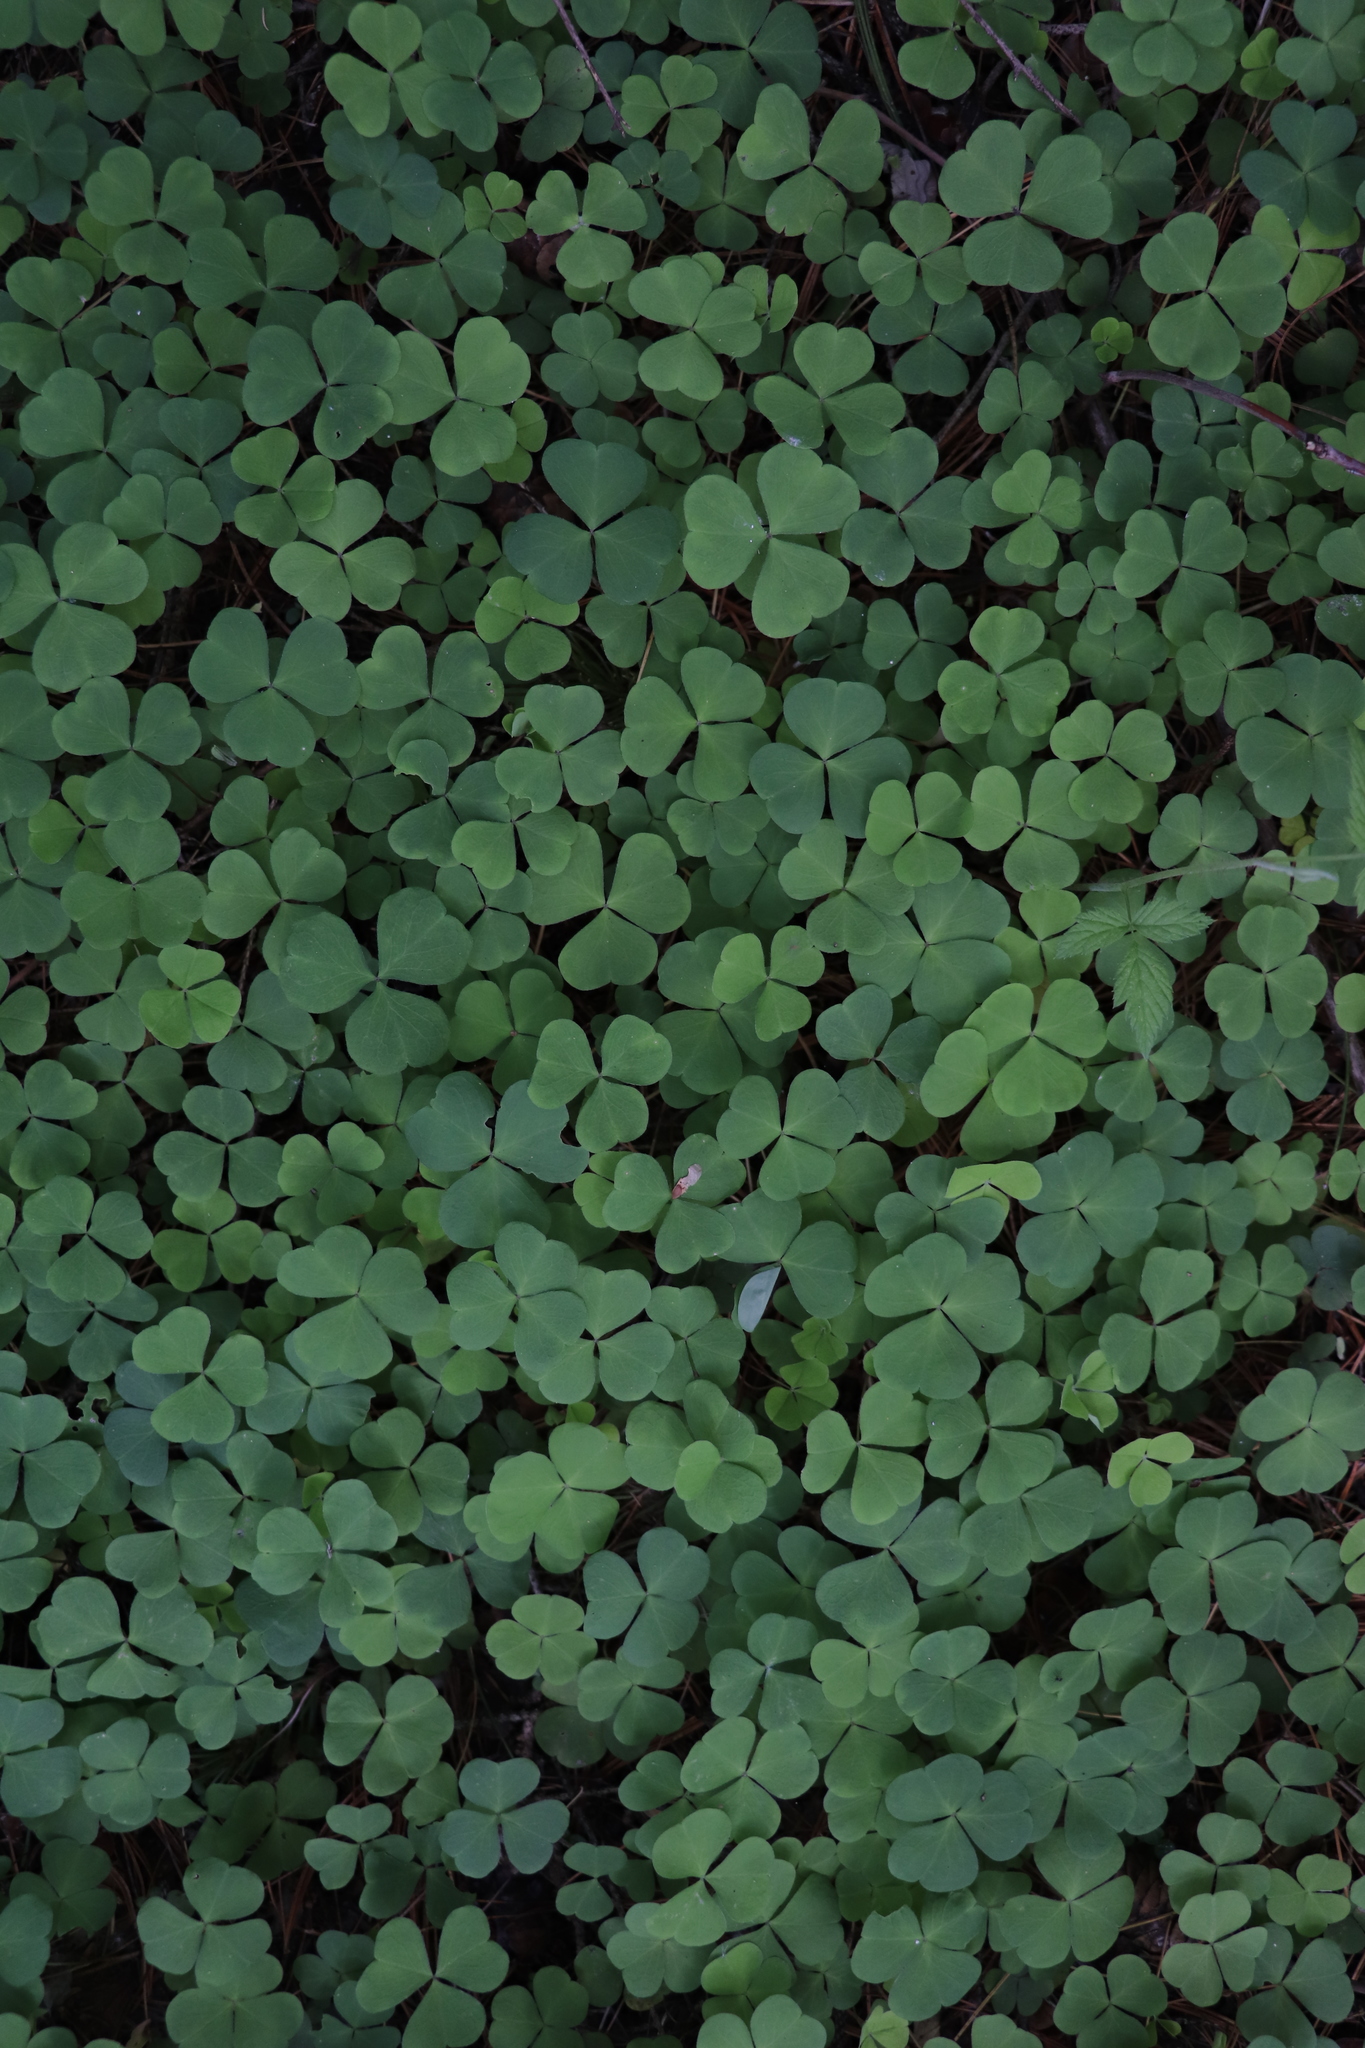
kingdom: Plantae
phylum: Tracheophyta
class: Magnoliopsida
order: Oxalidales
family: Oxalidaceae
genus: Oxalis
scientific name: Oxalis acetosella
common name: Wood-sorrel
